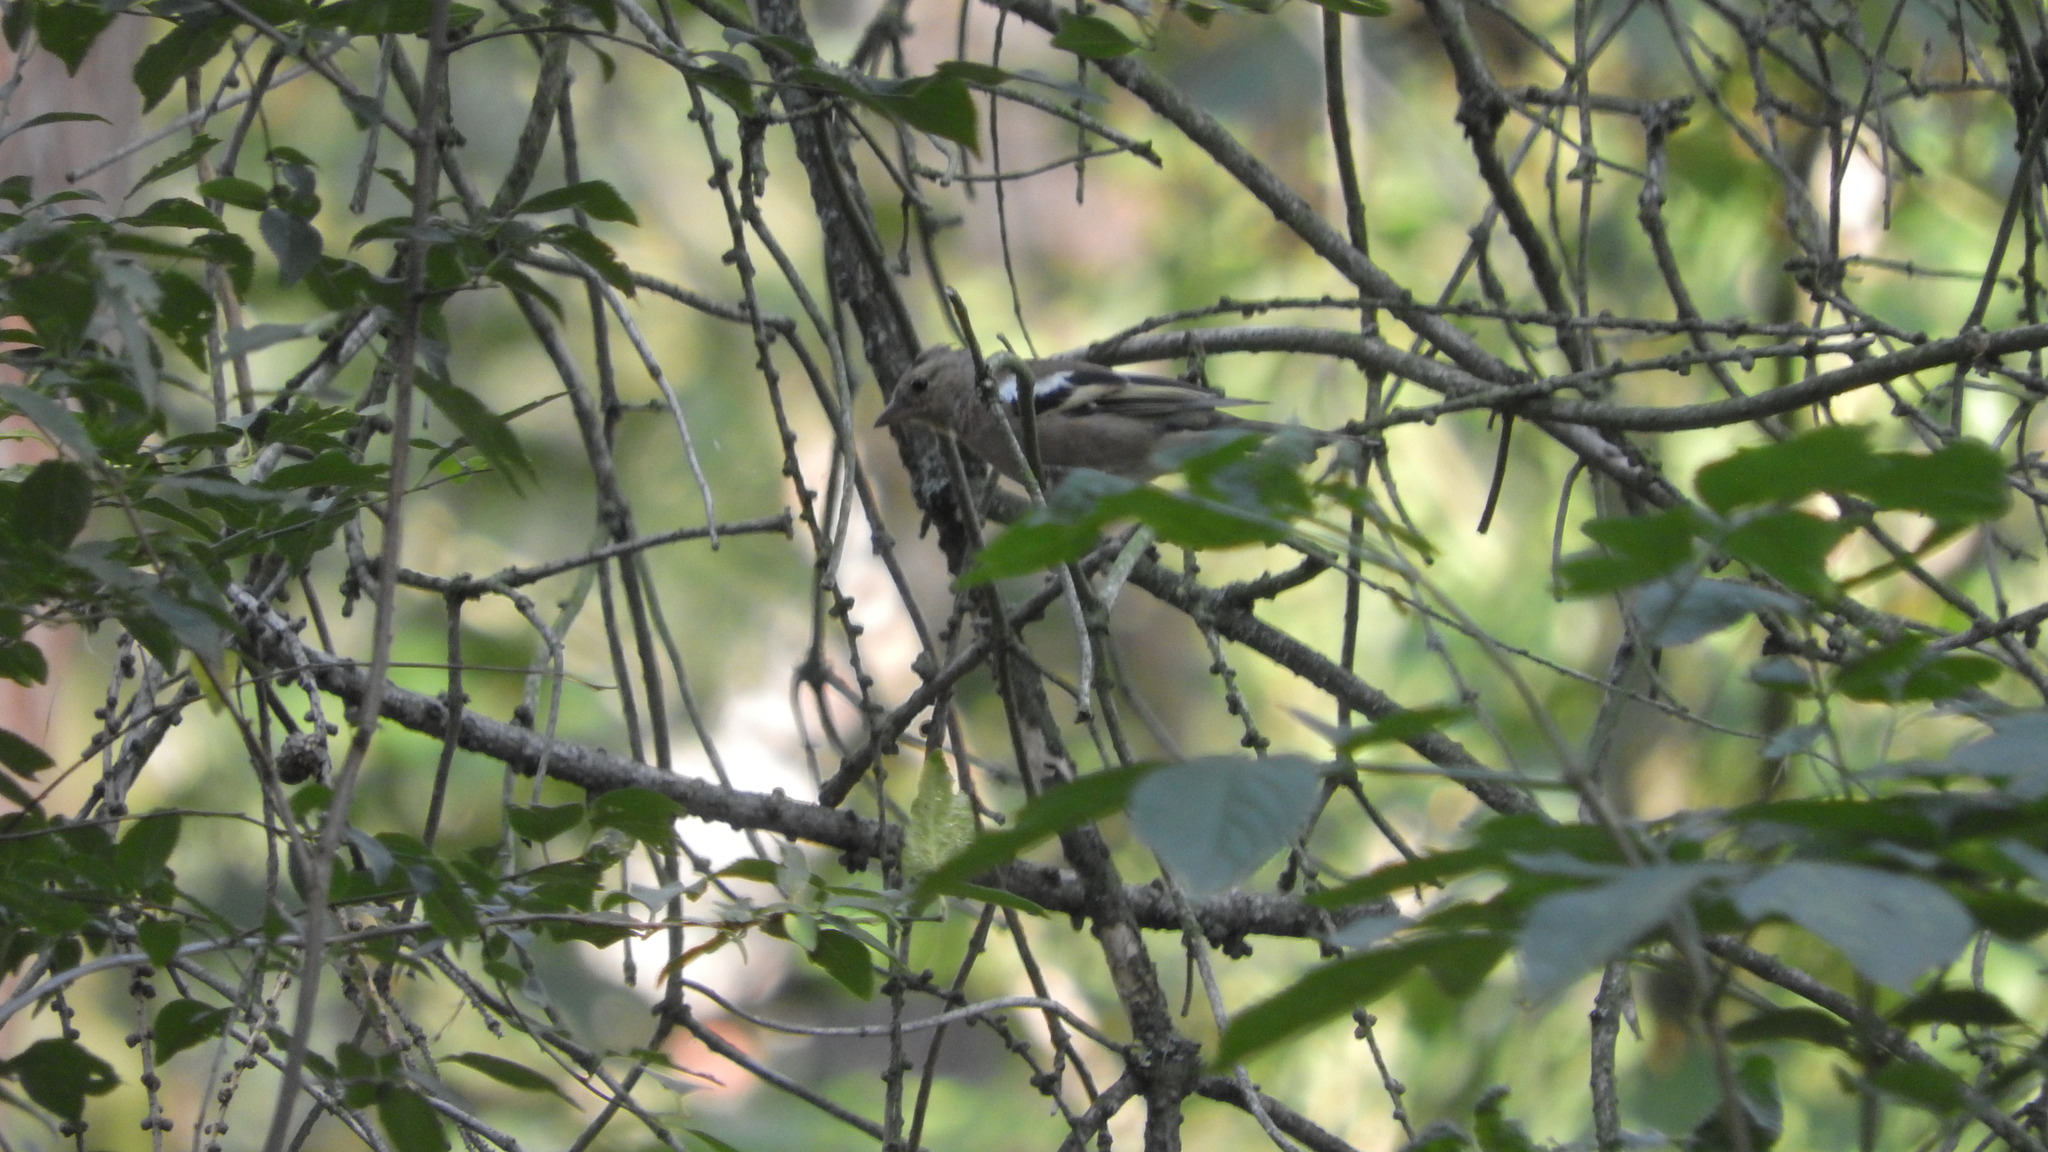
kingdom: Animalia
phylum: Chordata
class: Aves
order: Passeriformes
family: Fringillidae
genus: Fringilla
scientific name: Fringilla coelebs
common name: Common chaffinch
